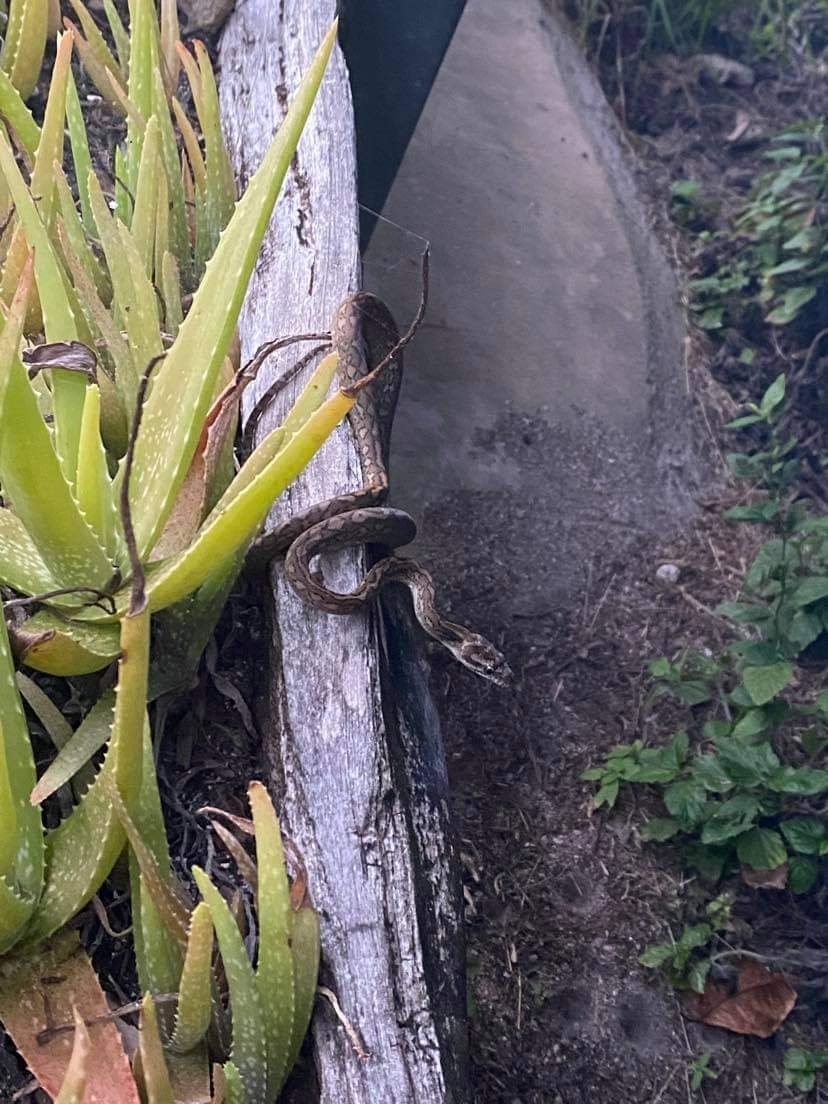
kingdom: Animalia
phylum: Chordata
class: Squamata
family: Pythonidae
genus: Morelia
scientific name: Morelia spilota
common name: Carpet python
